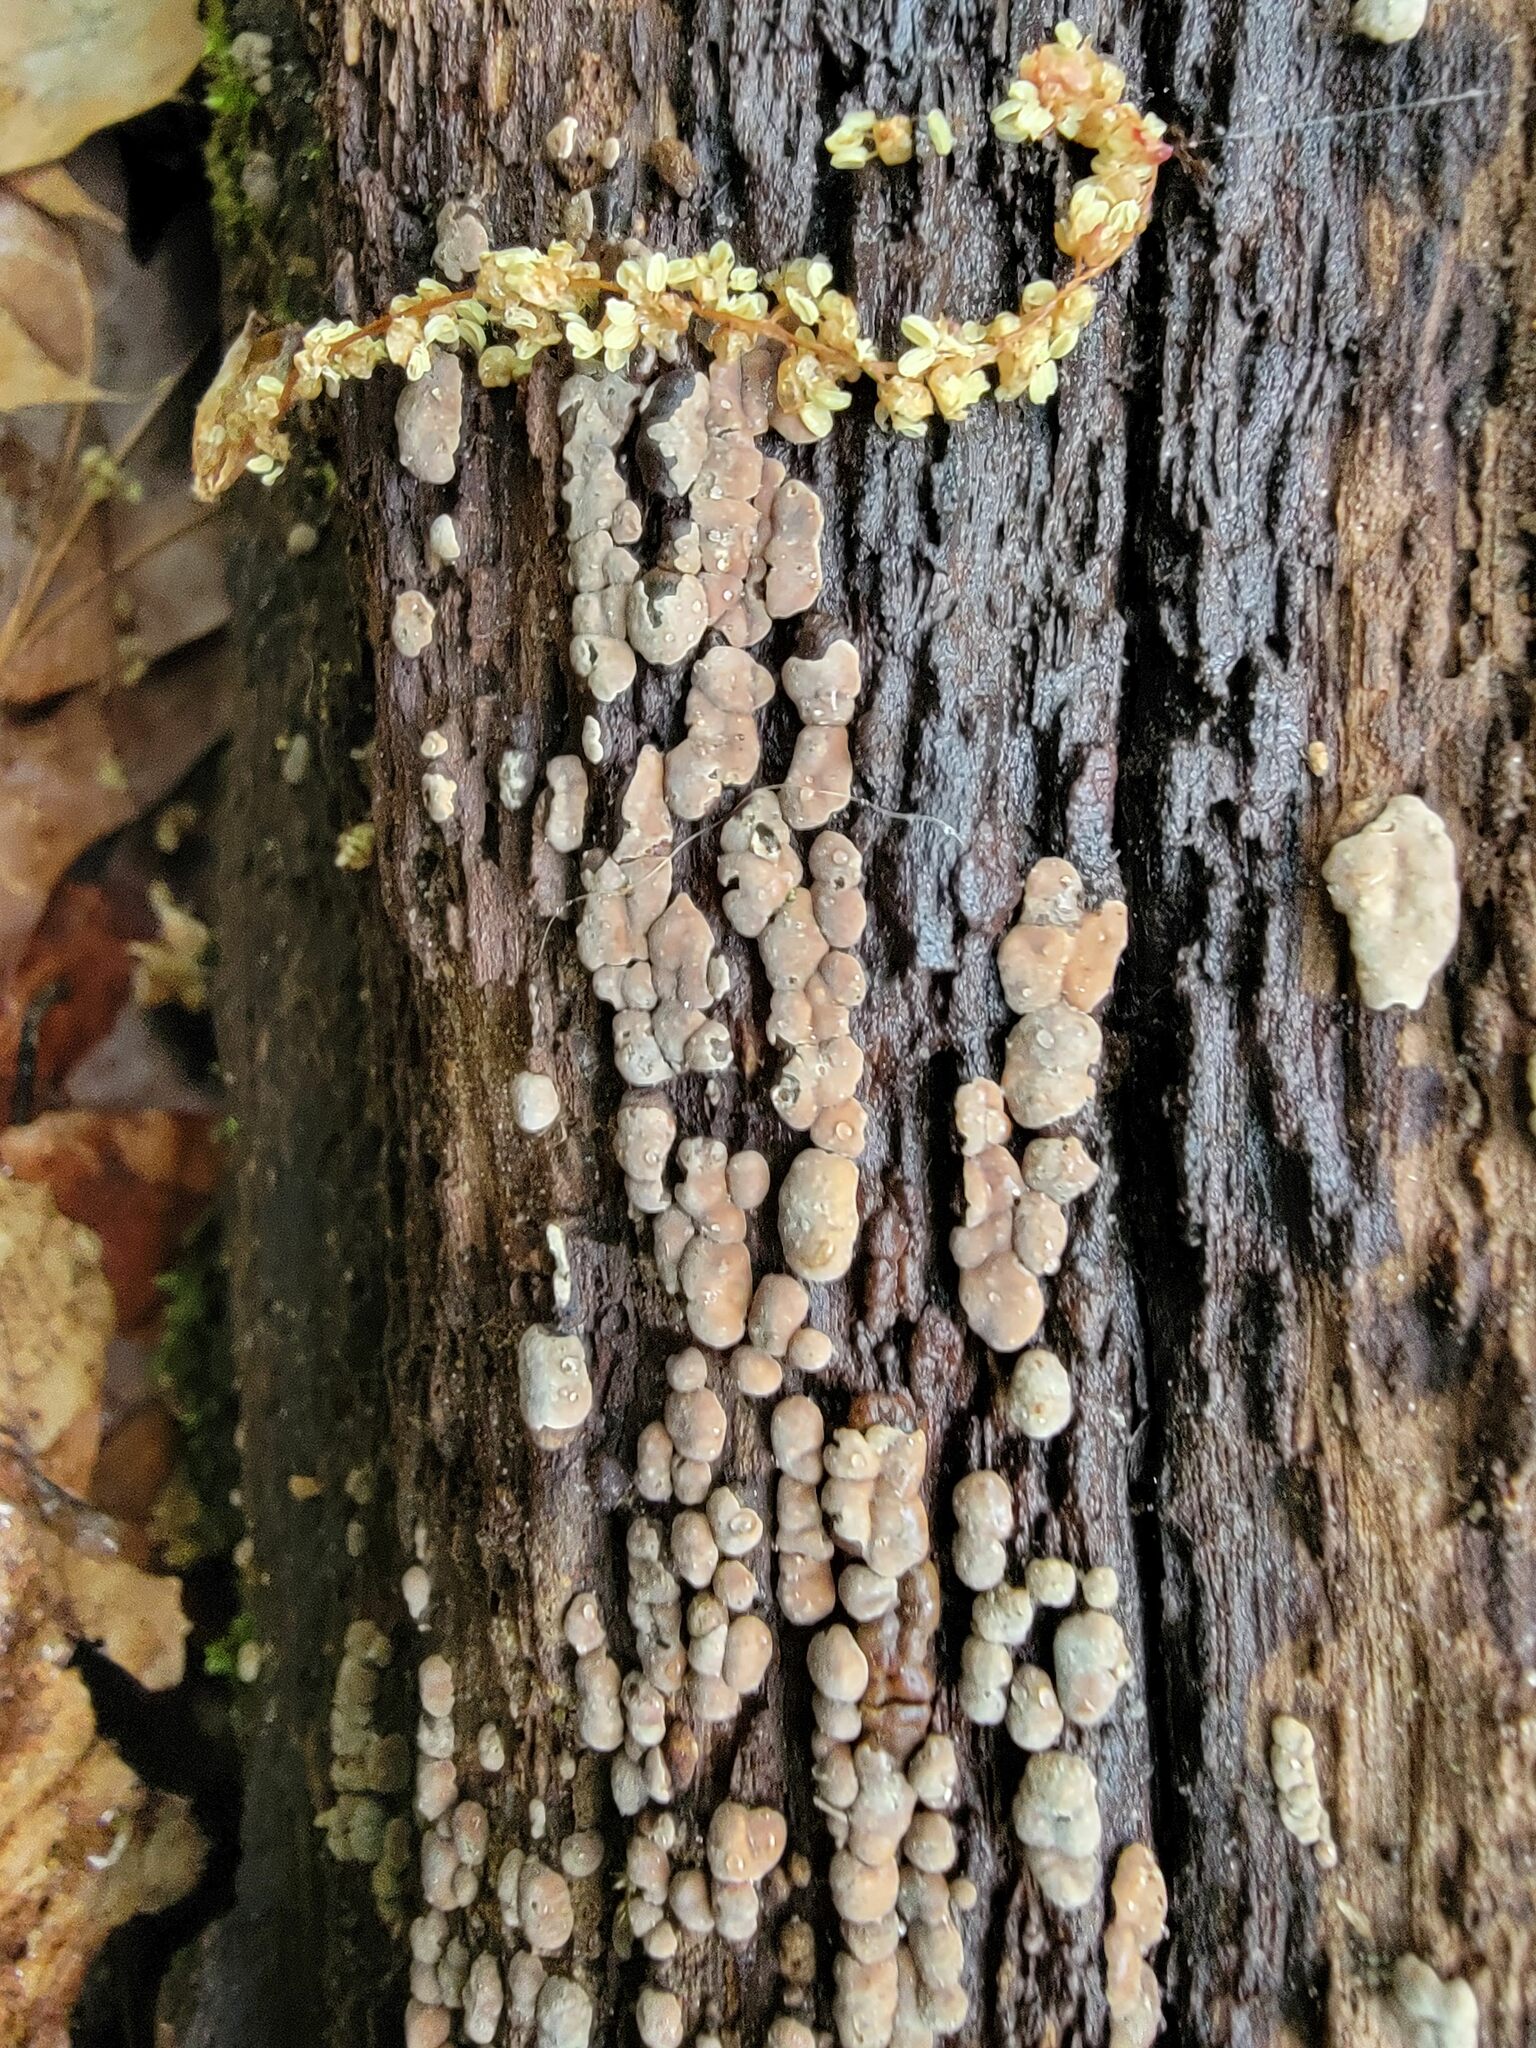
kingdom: Fungi
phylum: Basidiomycota
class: Agaricomycetes
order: Russulales
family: Stereaceae
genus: Xylobolus
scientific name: Xylobolus frustulatus
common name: Ceramic parchment
